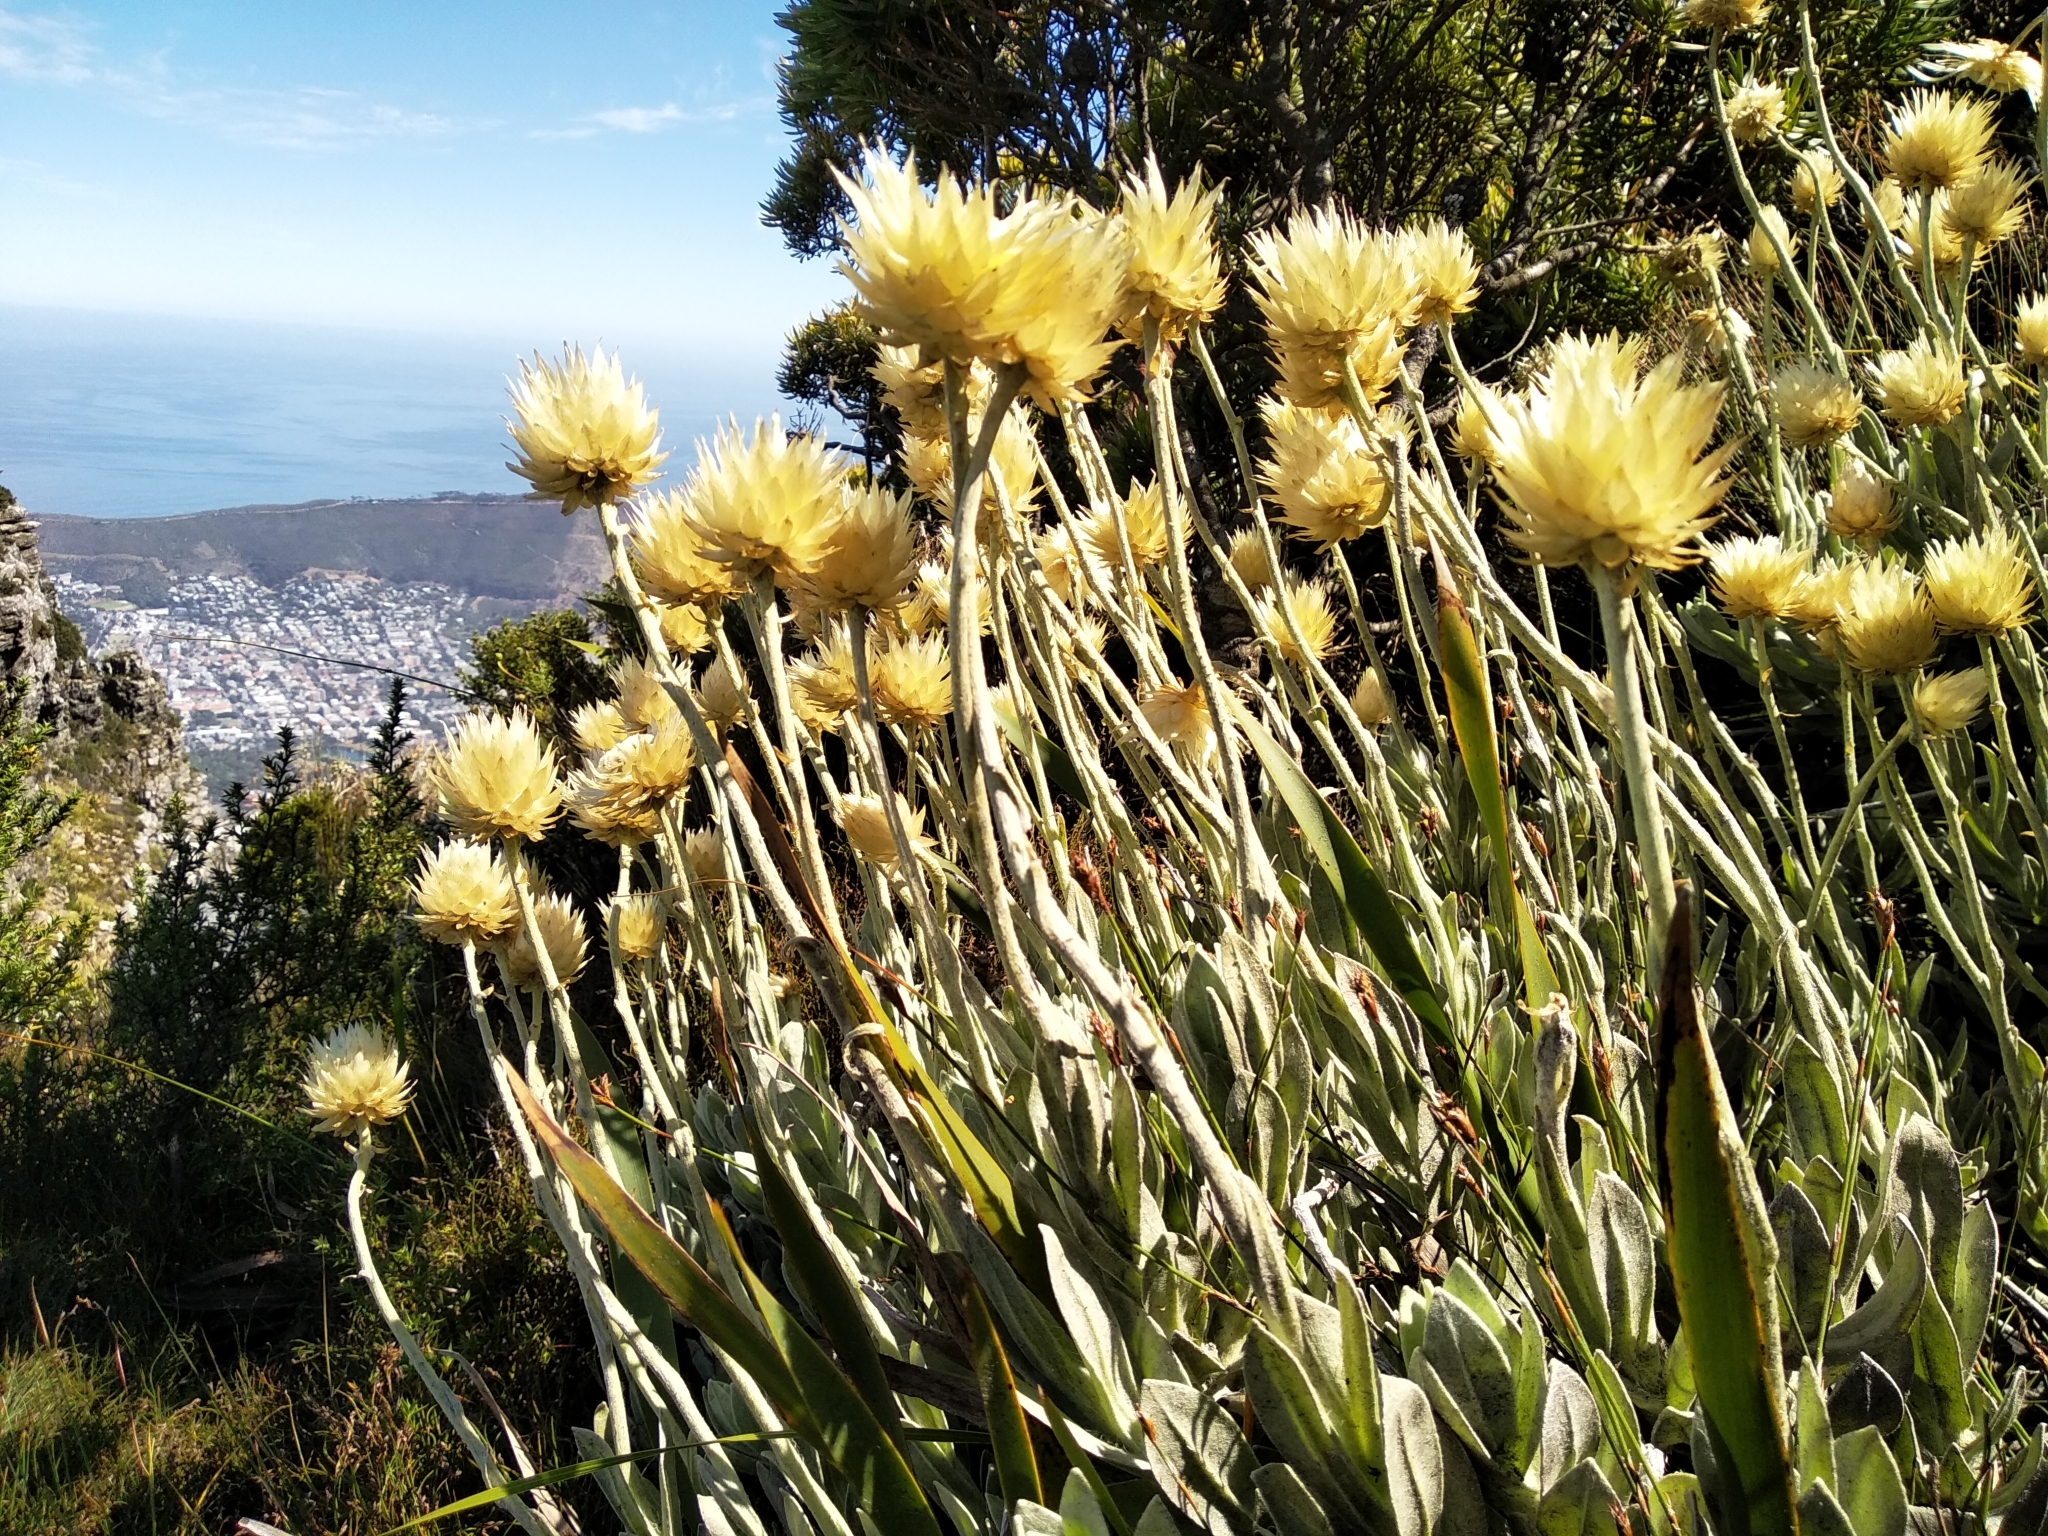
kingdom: Plantae
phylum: Tracheophyta
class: Magnoliopsida
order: Asterales
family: Asteraceae
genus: Syncarpha
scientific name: Syncarpha speciosissima
